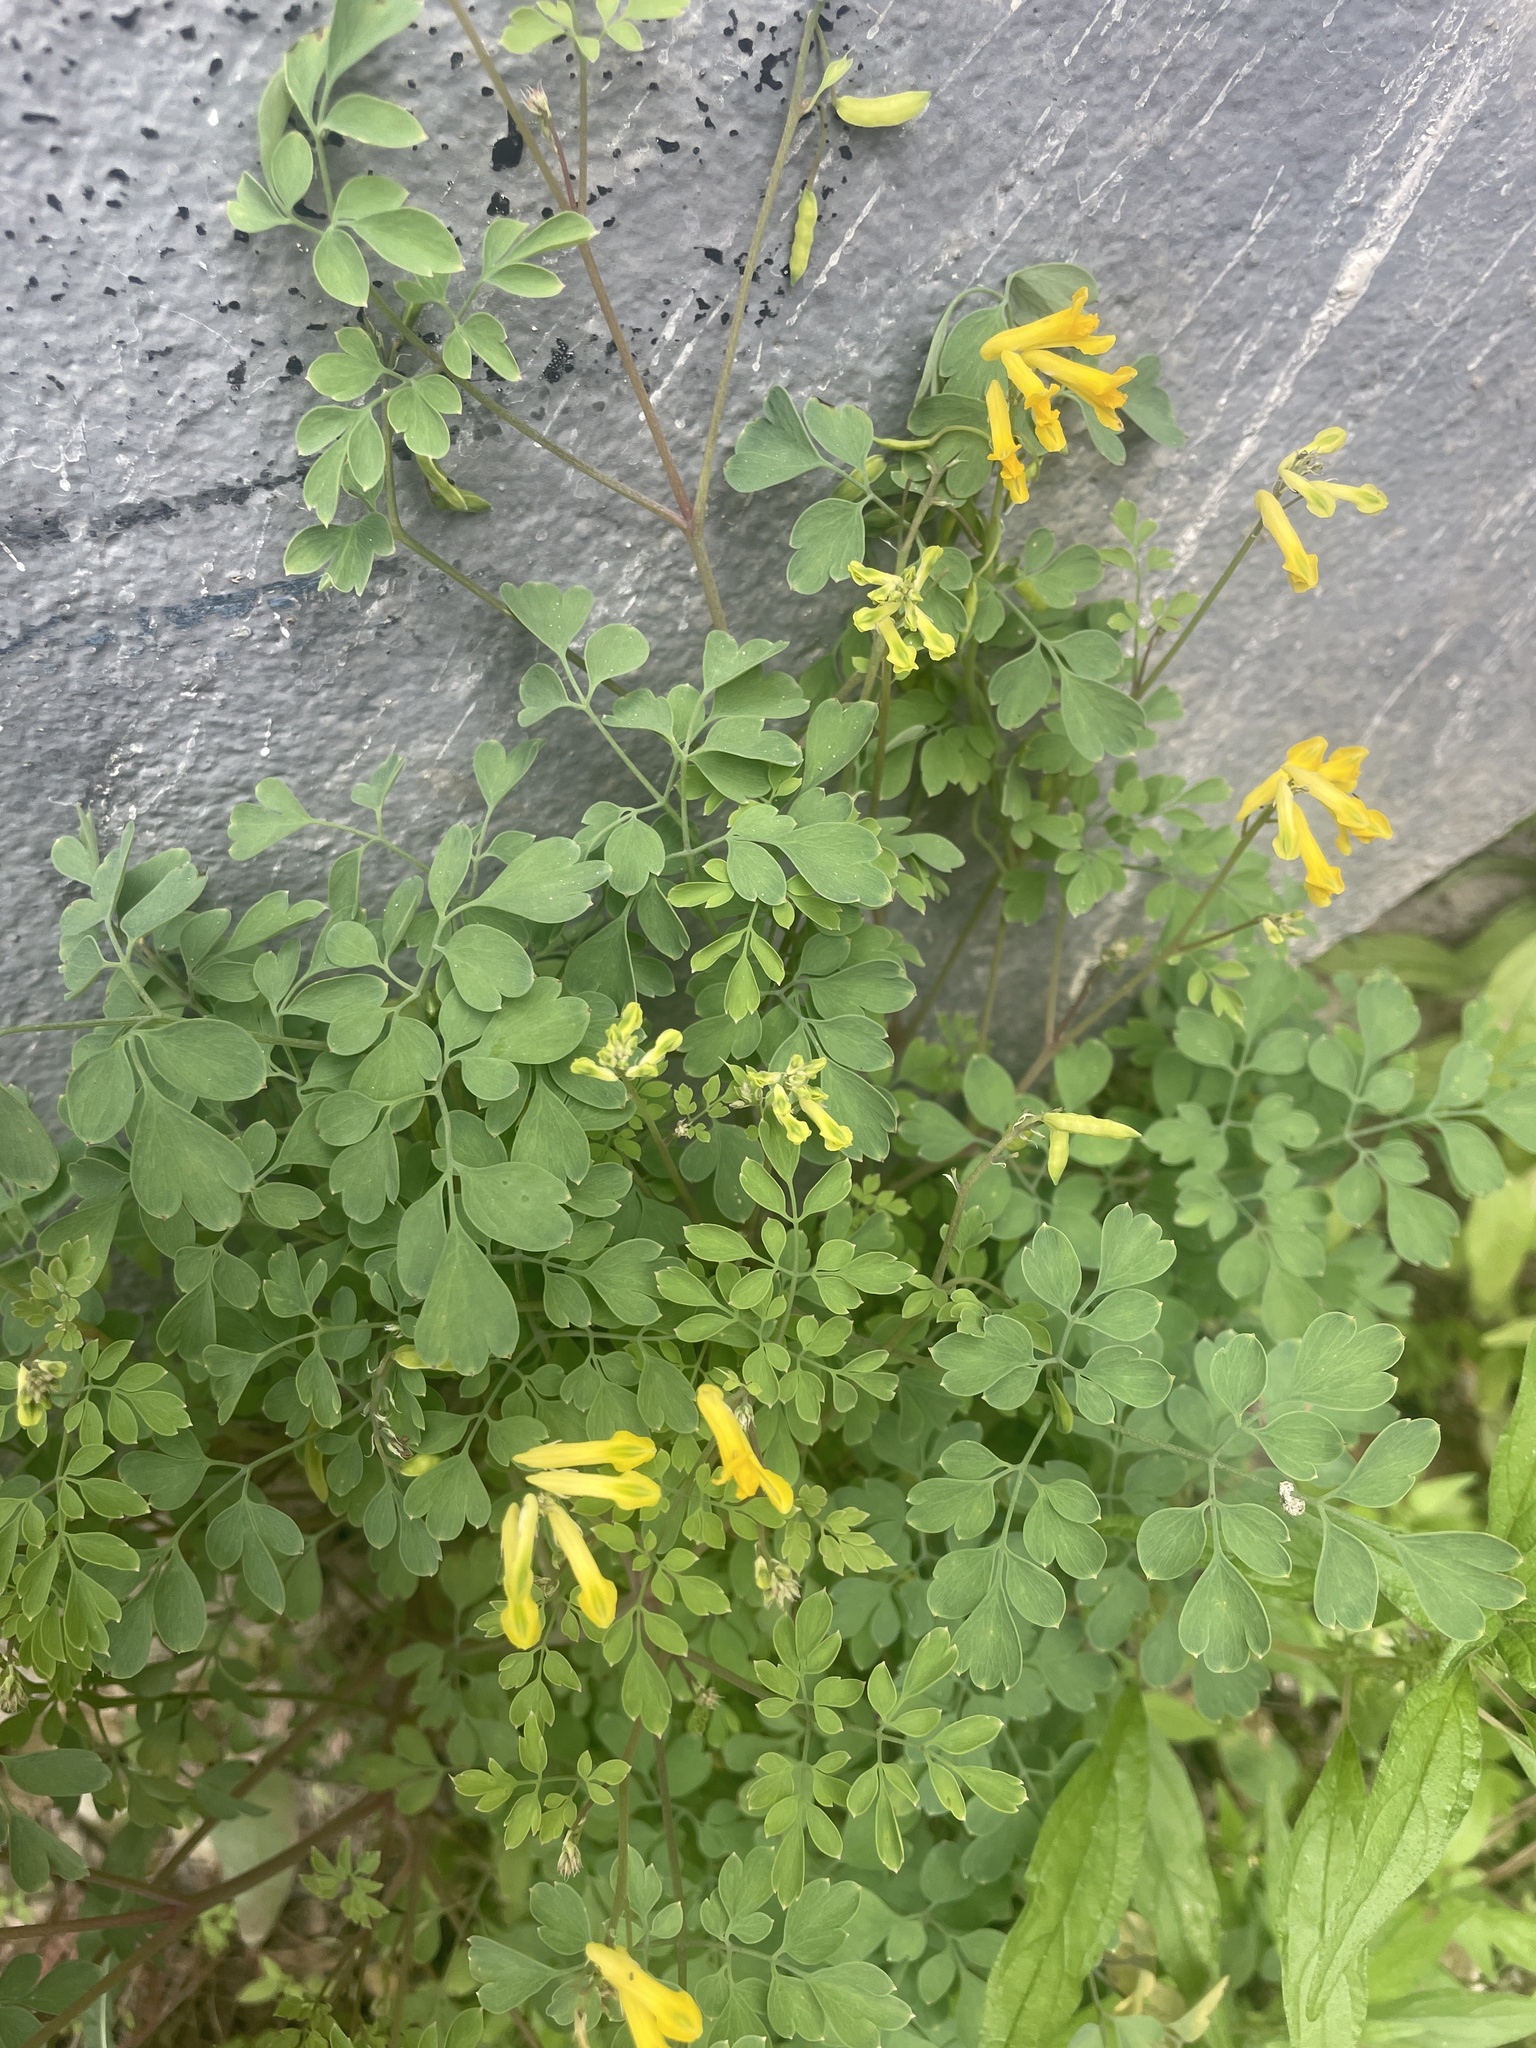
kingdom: Plantae
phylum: Tracheophyta
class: Magnoliopsida
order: Ranunculales
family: Papaveraceae
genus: Pseudofumaria
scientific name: Pseudofumaria lutea
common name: Yellow corydalis
